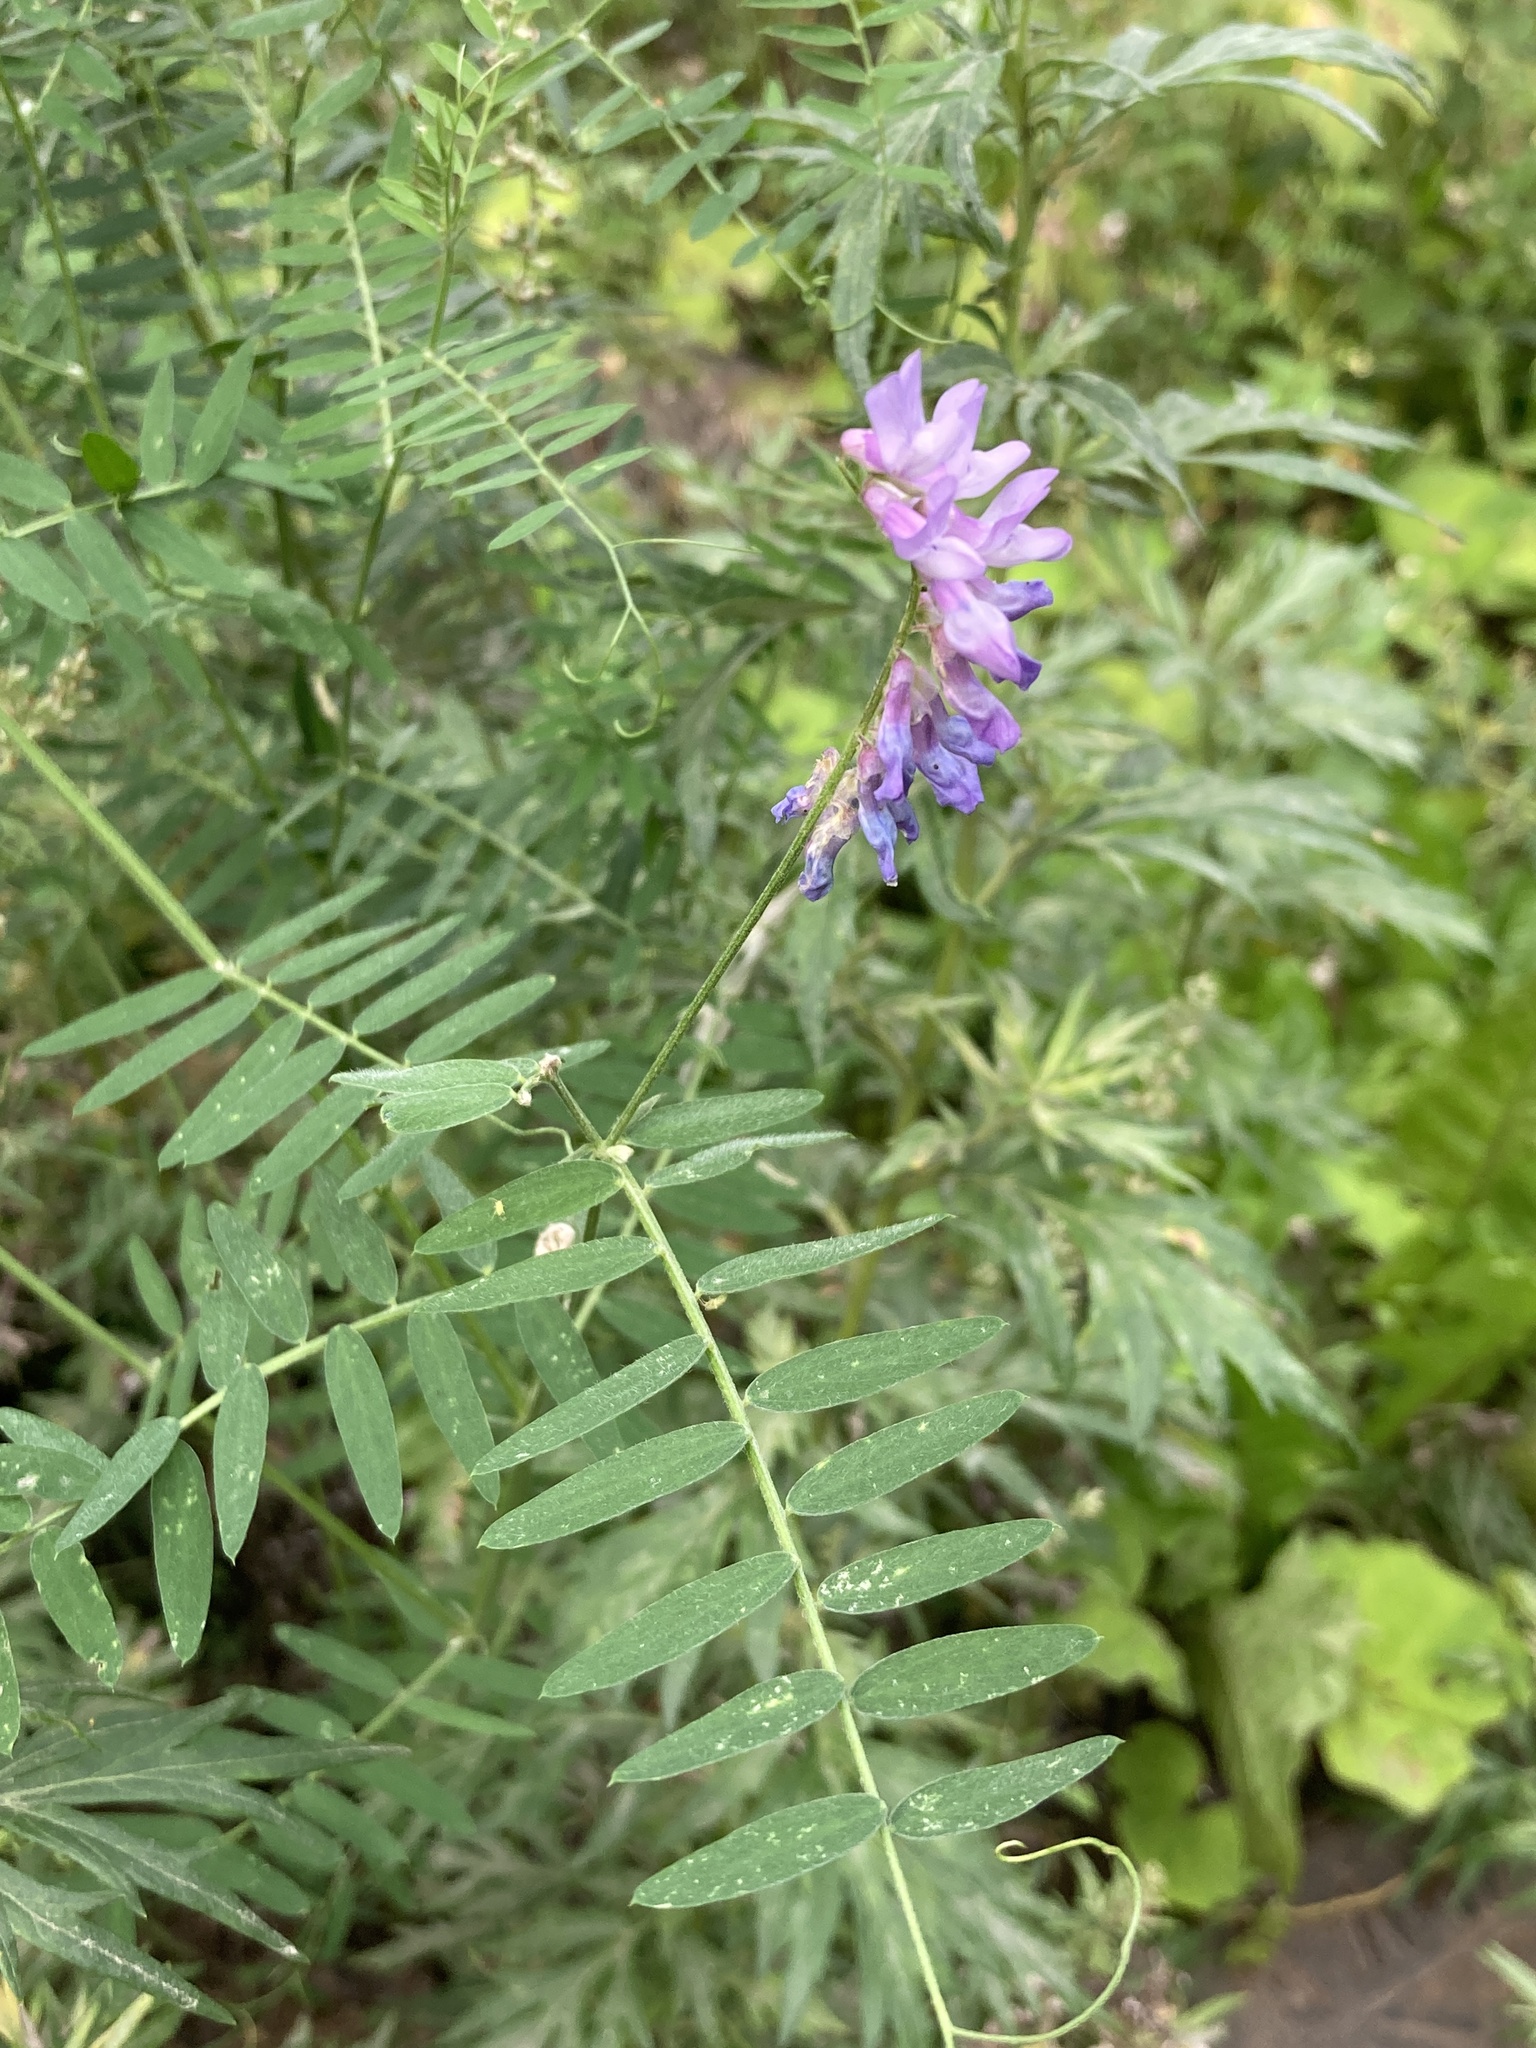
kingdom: Plantae
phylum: Tracheophyta
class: Magnoliopsida
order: Fabales
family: Fabaceae
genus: Vicia
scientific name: Vicia cracca
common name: Bird vetch
